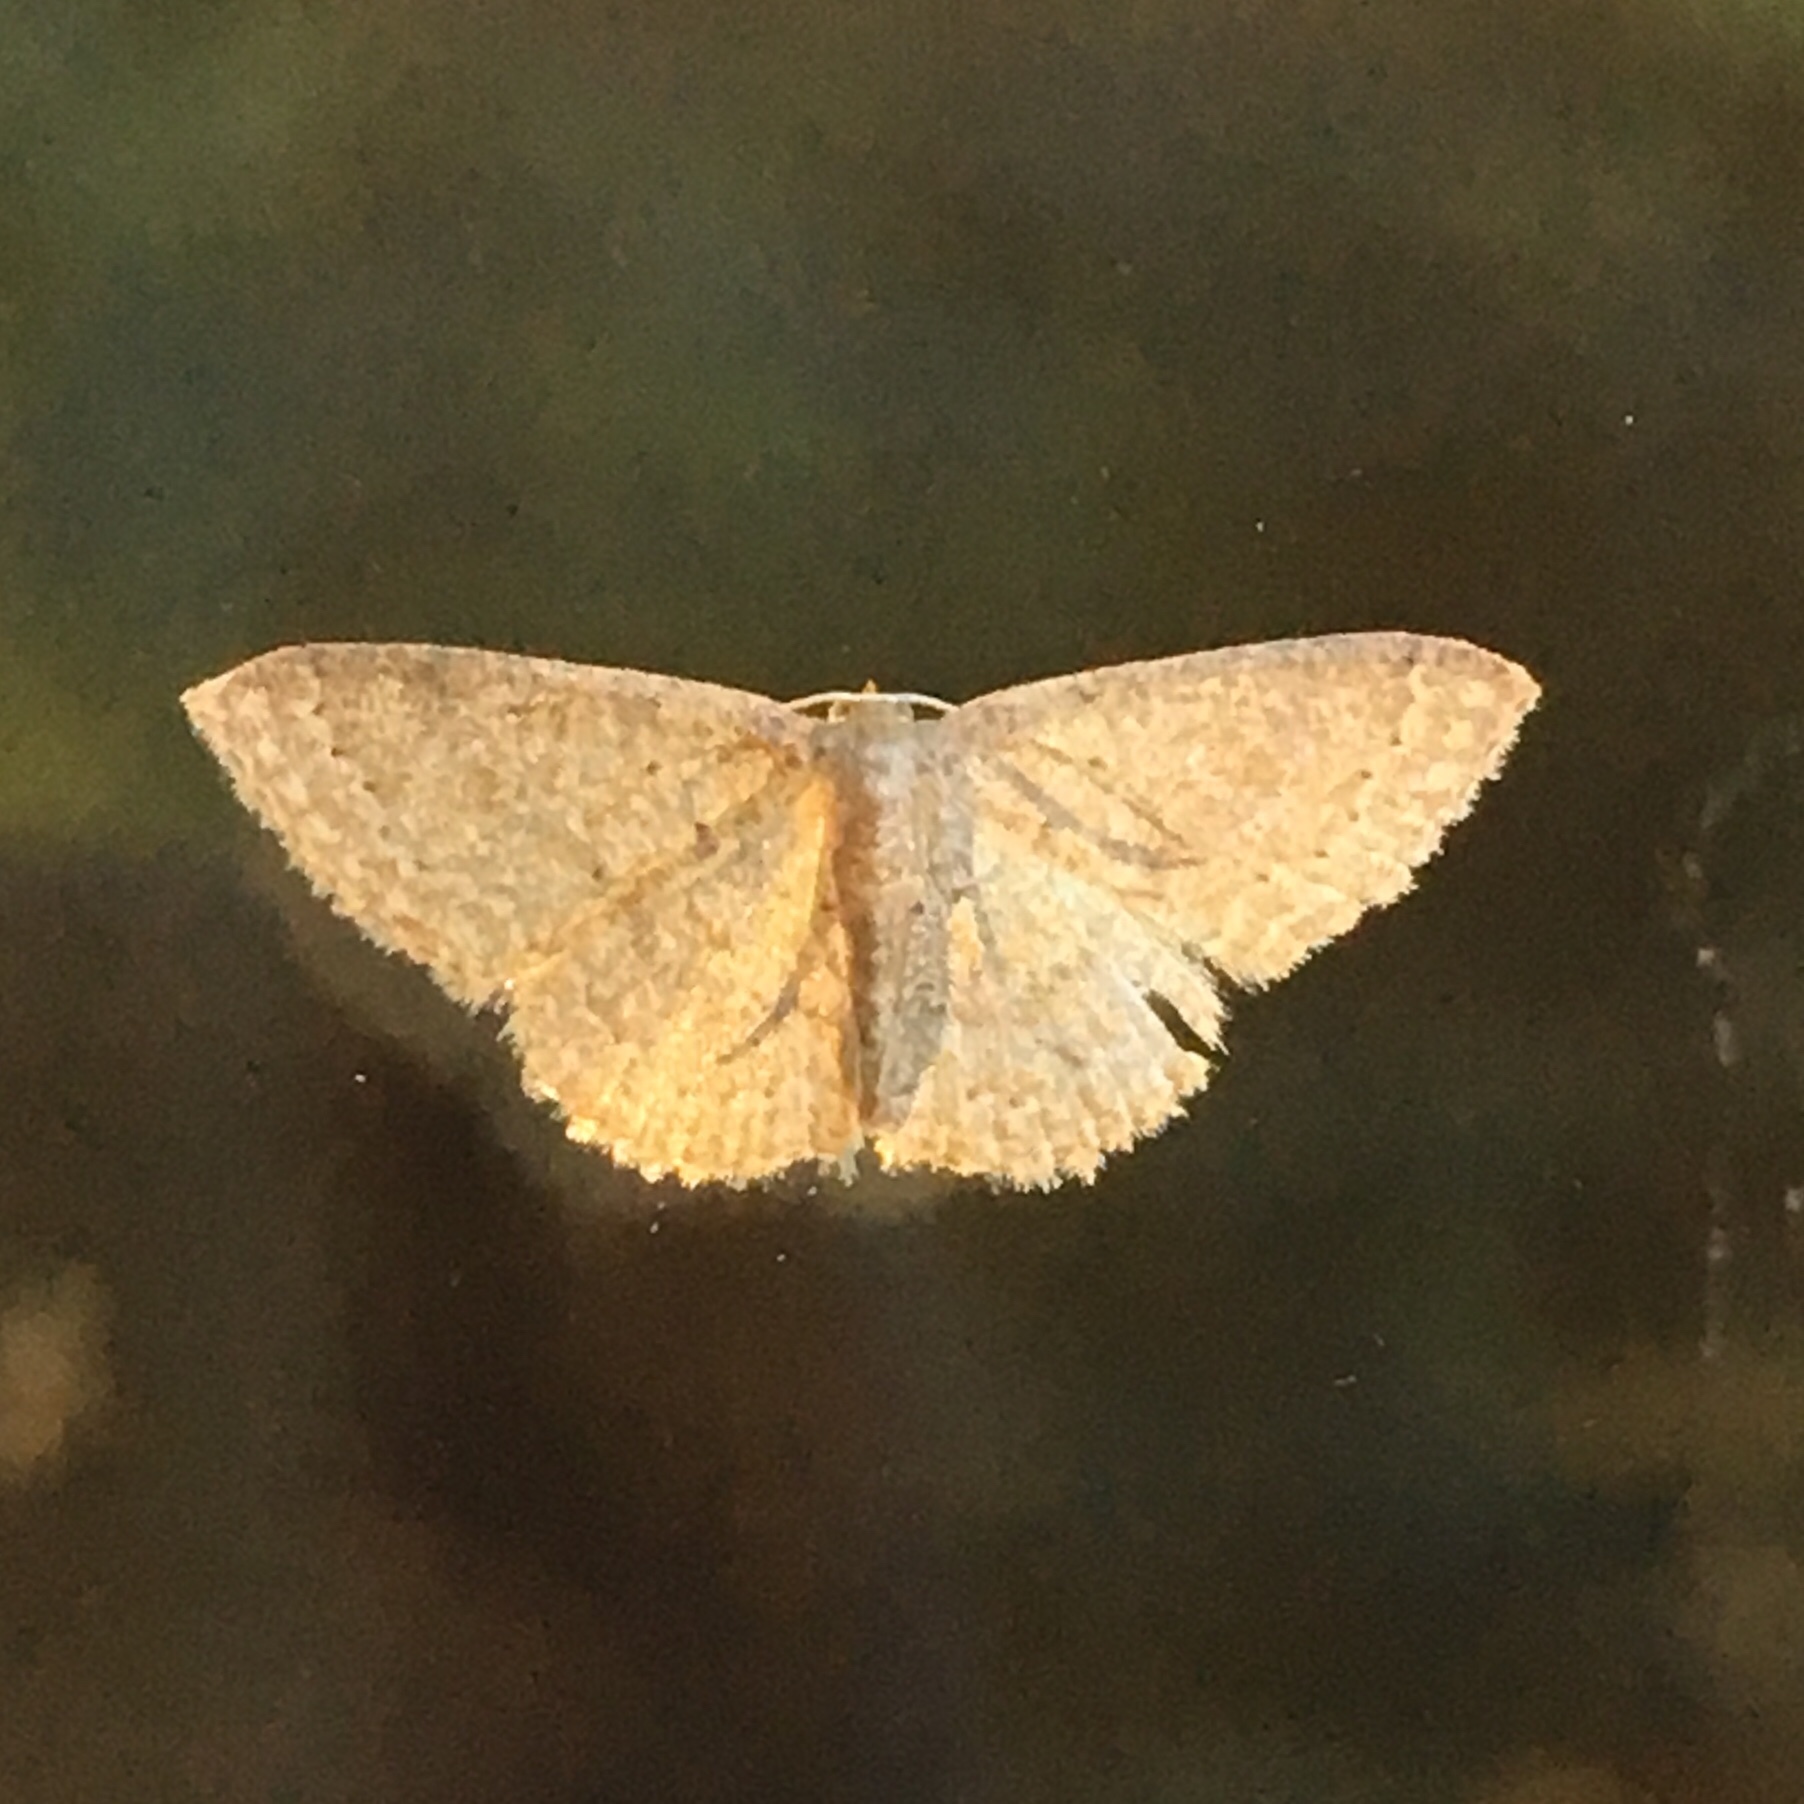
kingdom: Animalia
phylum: Arthropoda
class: Insecta
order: Lepidoptera
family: Geometridae
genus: Pleuroprucha
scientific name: Pleuroprucha insulsaria
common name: Common tan wave
